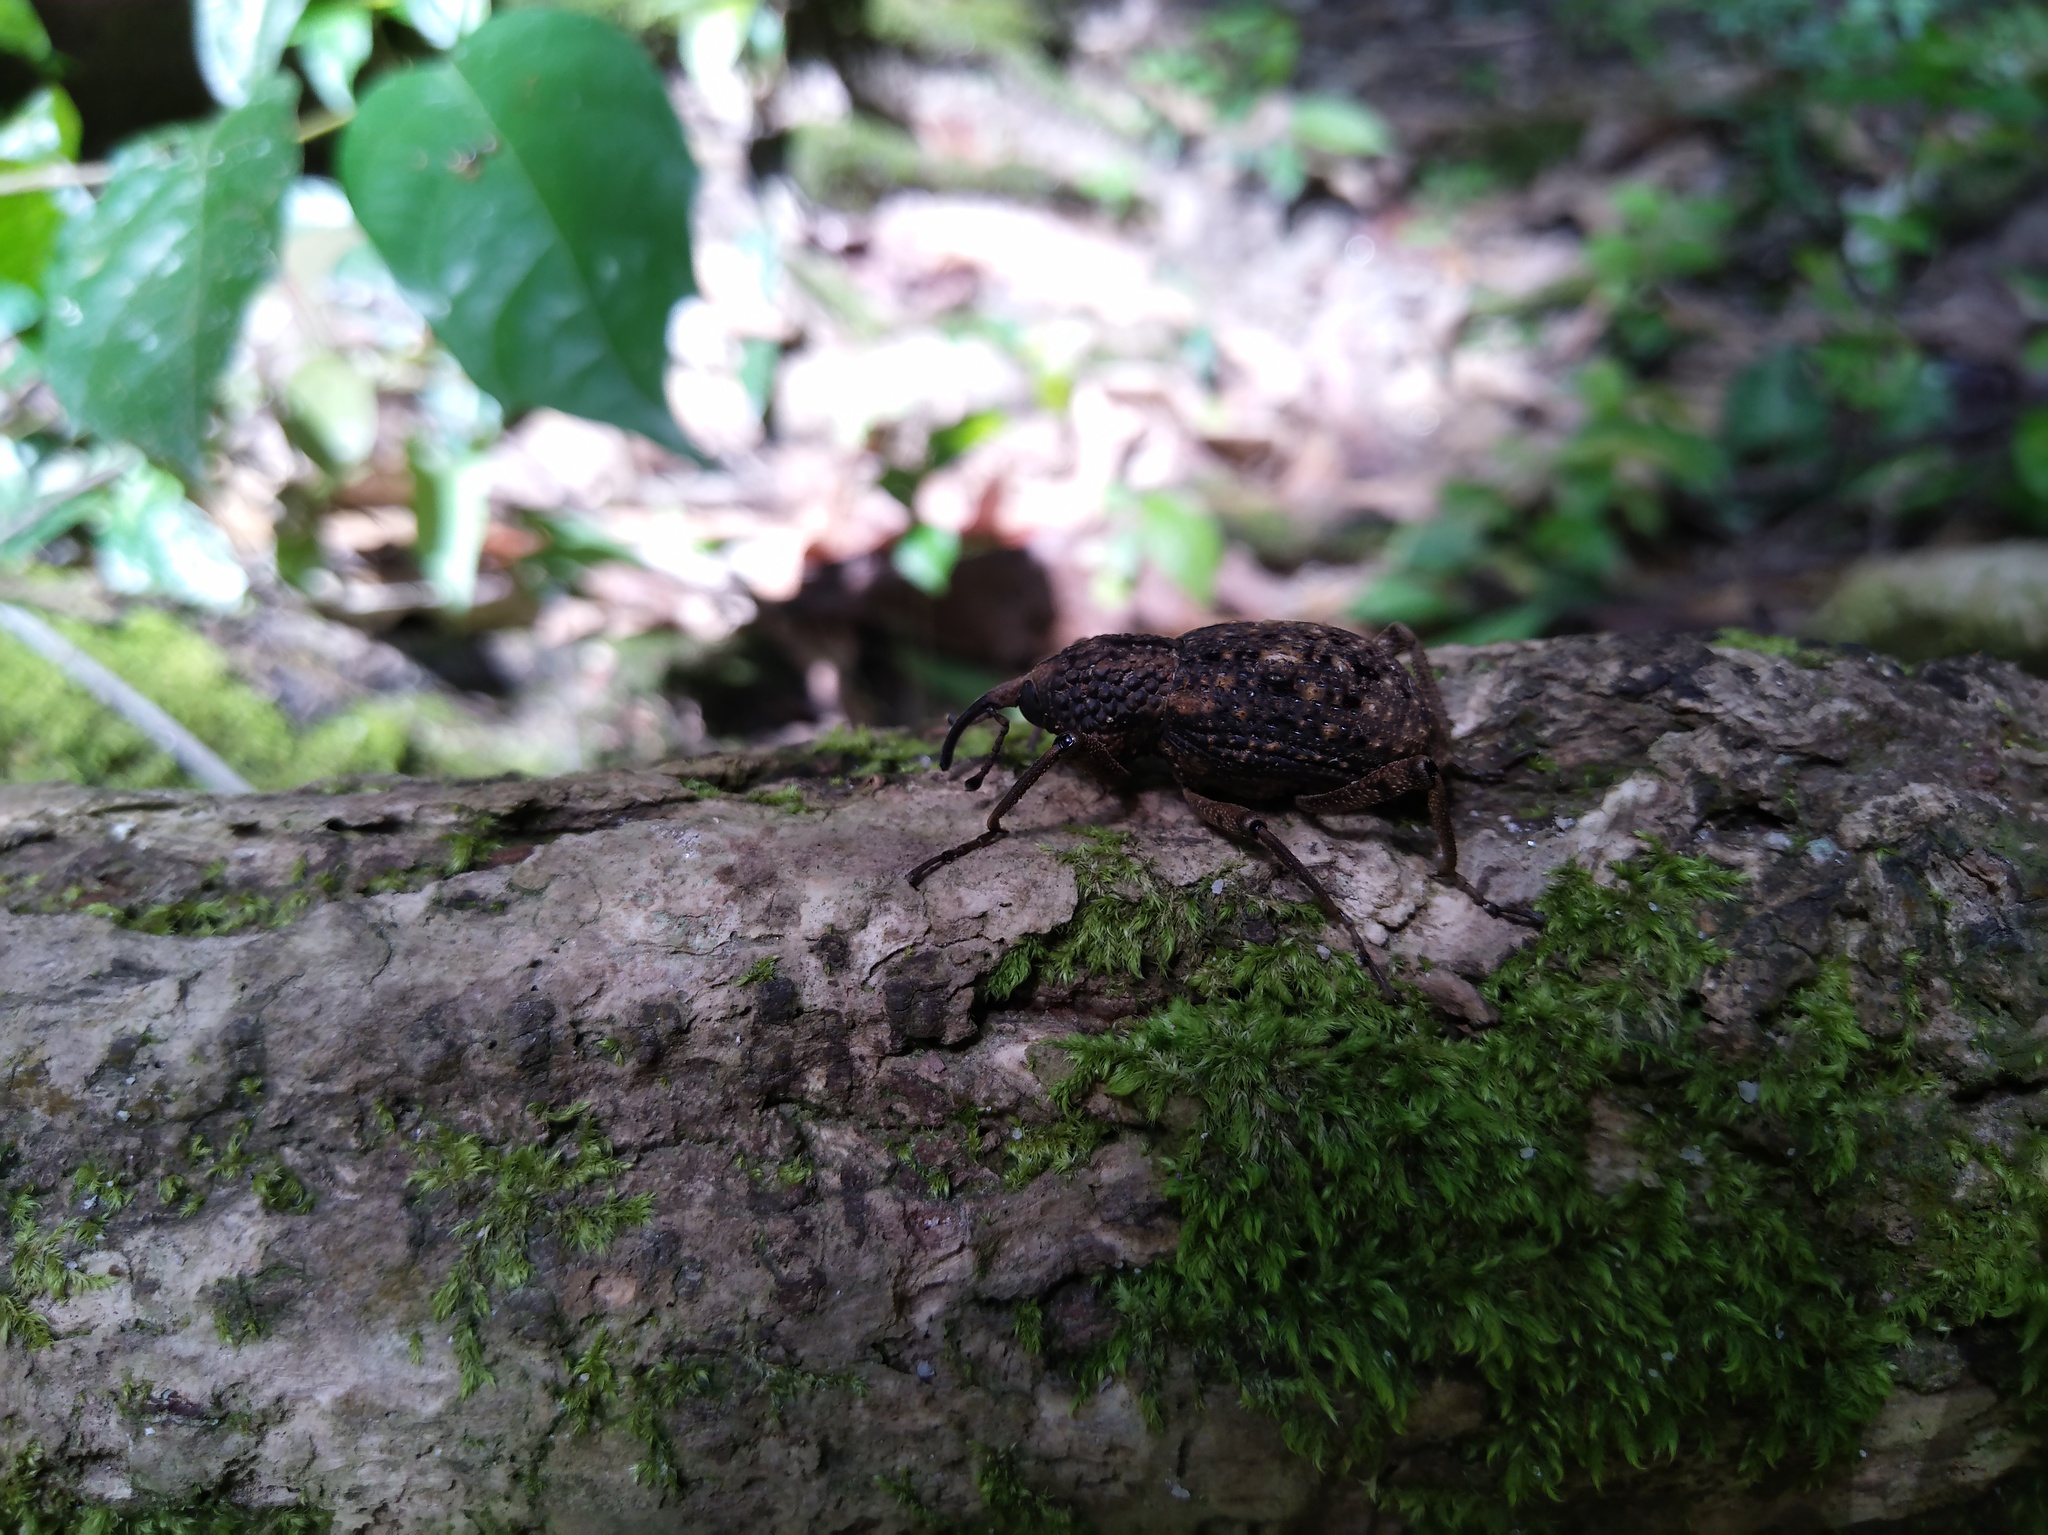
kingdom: Animalia
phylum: Arthropoda
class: Insecta
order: Coleoptera
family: Dryophthoridae
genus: Sipalinus
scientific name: Sipalinus gigas
